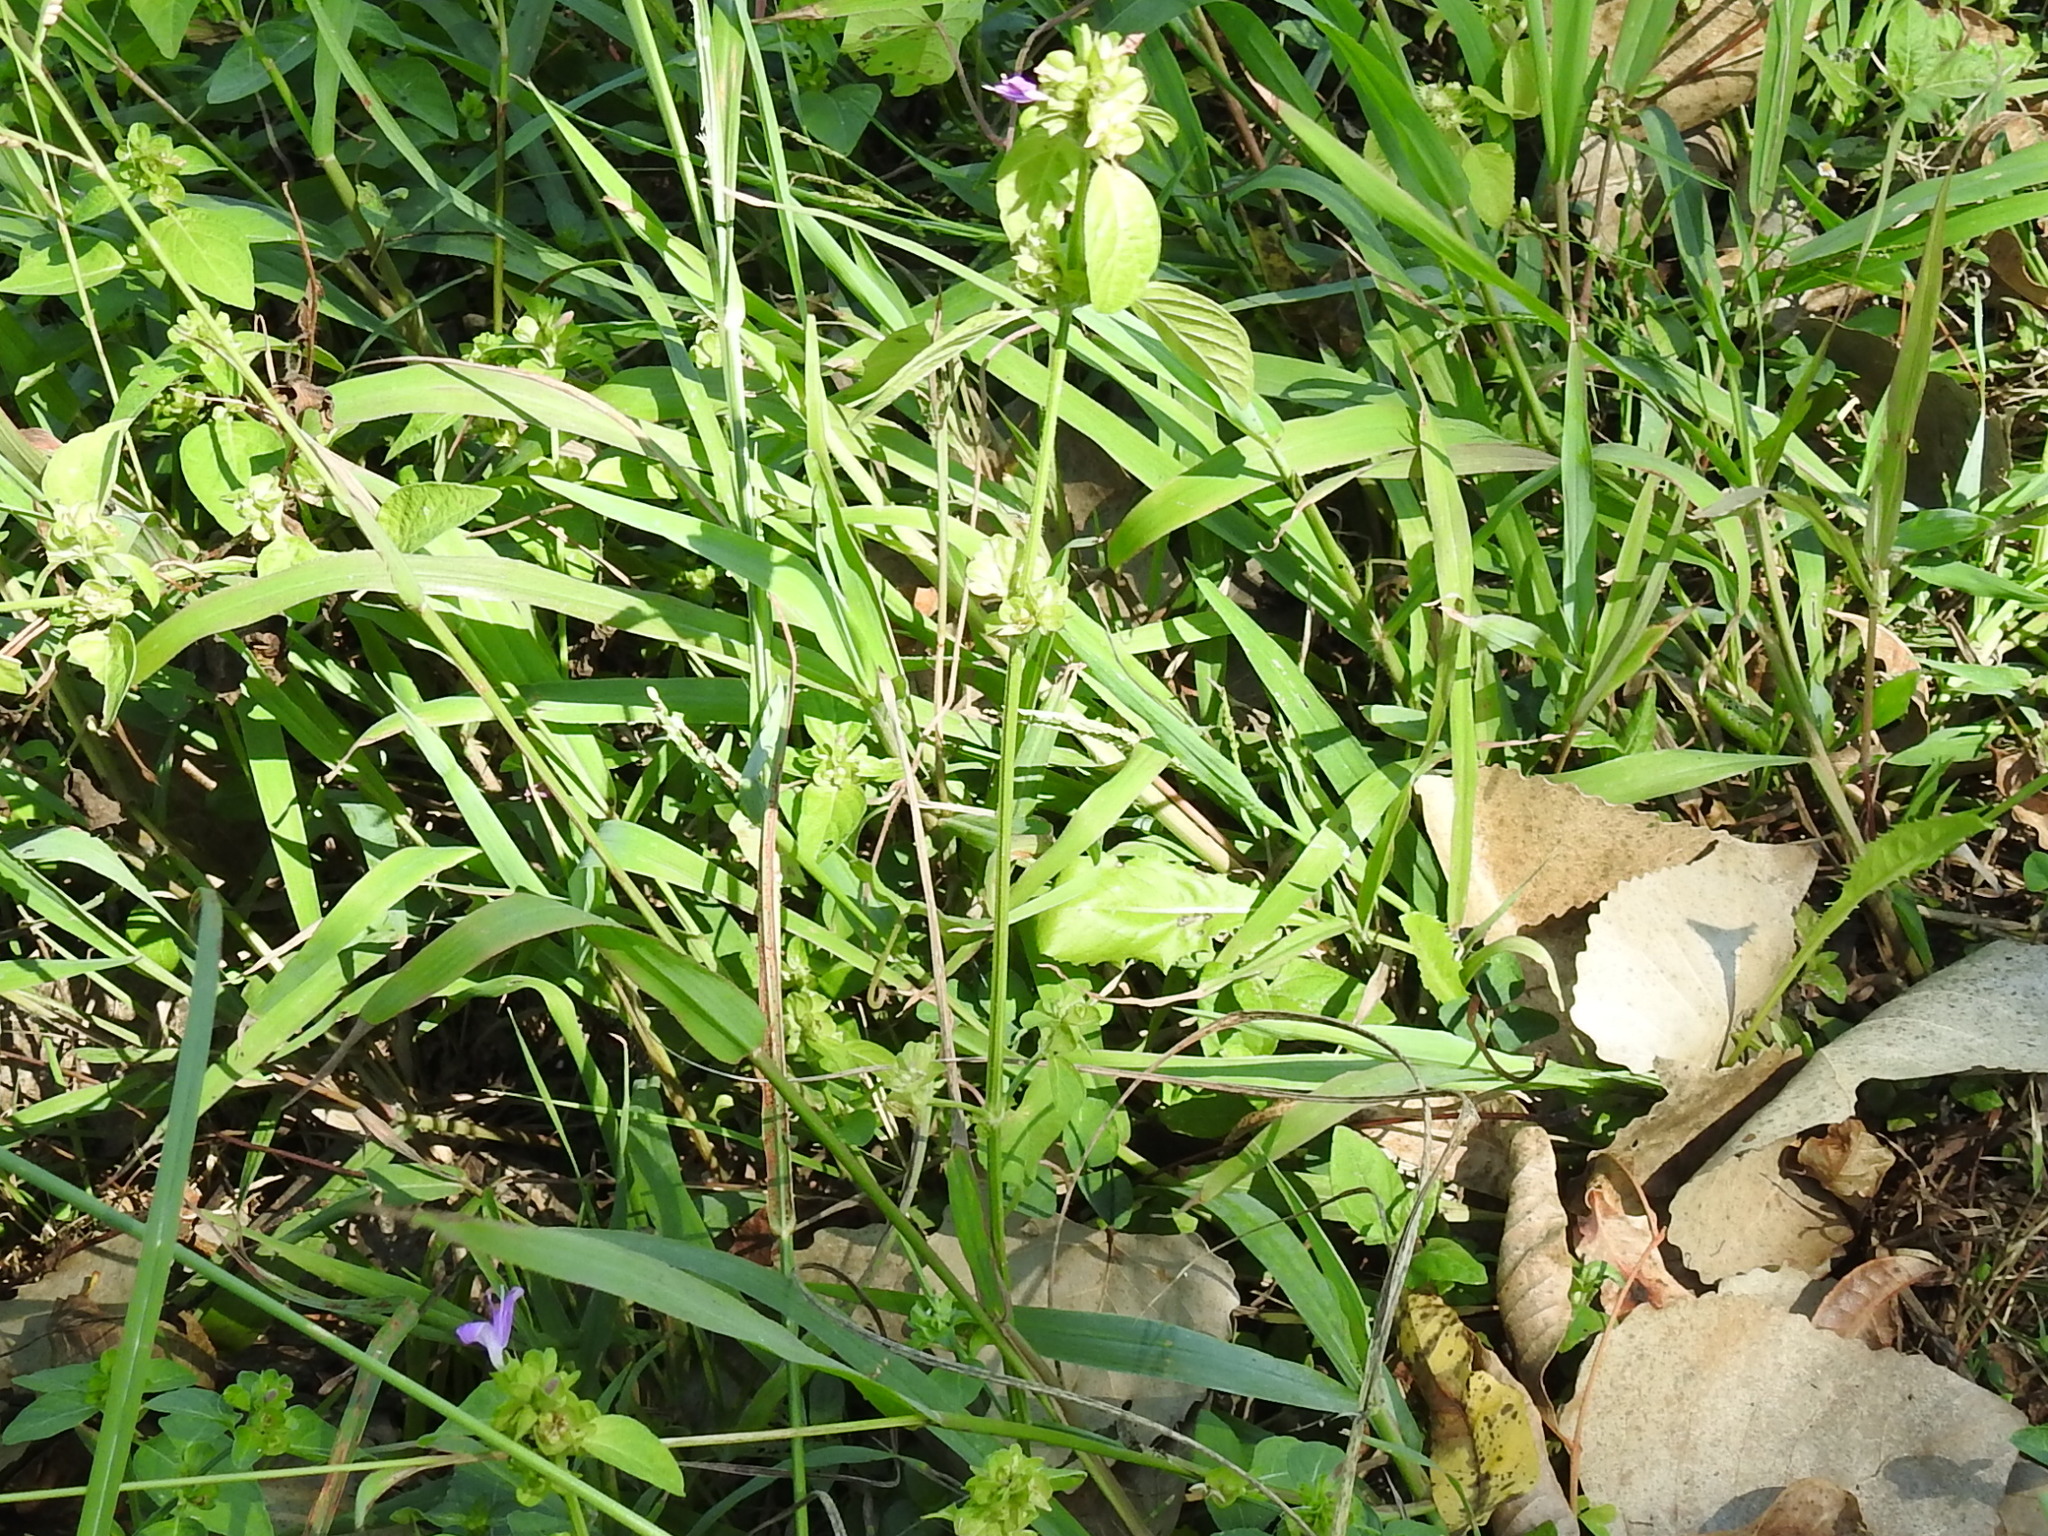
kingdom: Plantae
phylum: Tracheophyta
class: Magnoliopsida
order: Lamiales
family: Acanthaceae
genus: Dicliptera
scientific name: Dicliptera brachiata
